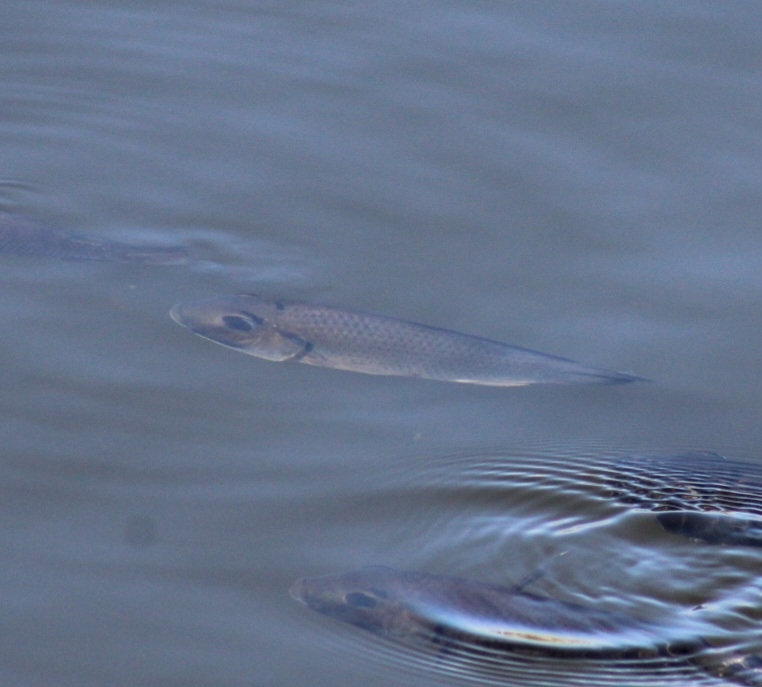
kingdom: Animalia
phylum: Chordata
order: Perciformes
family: Cichlidae
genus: Sarotherodon
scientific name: Sarotherodon melanotheron
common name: Blackchin tilapia
